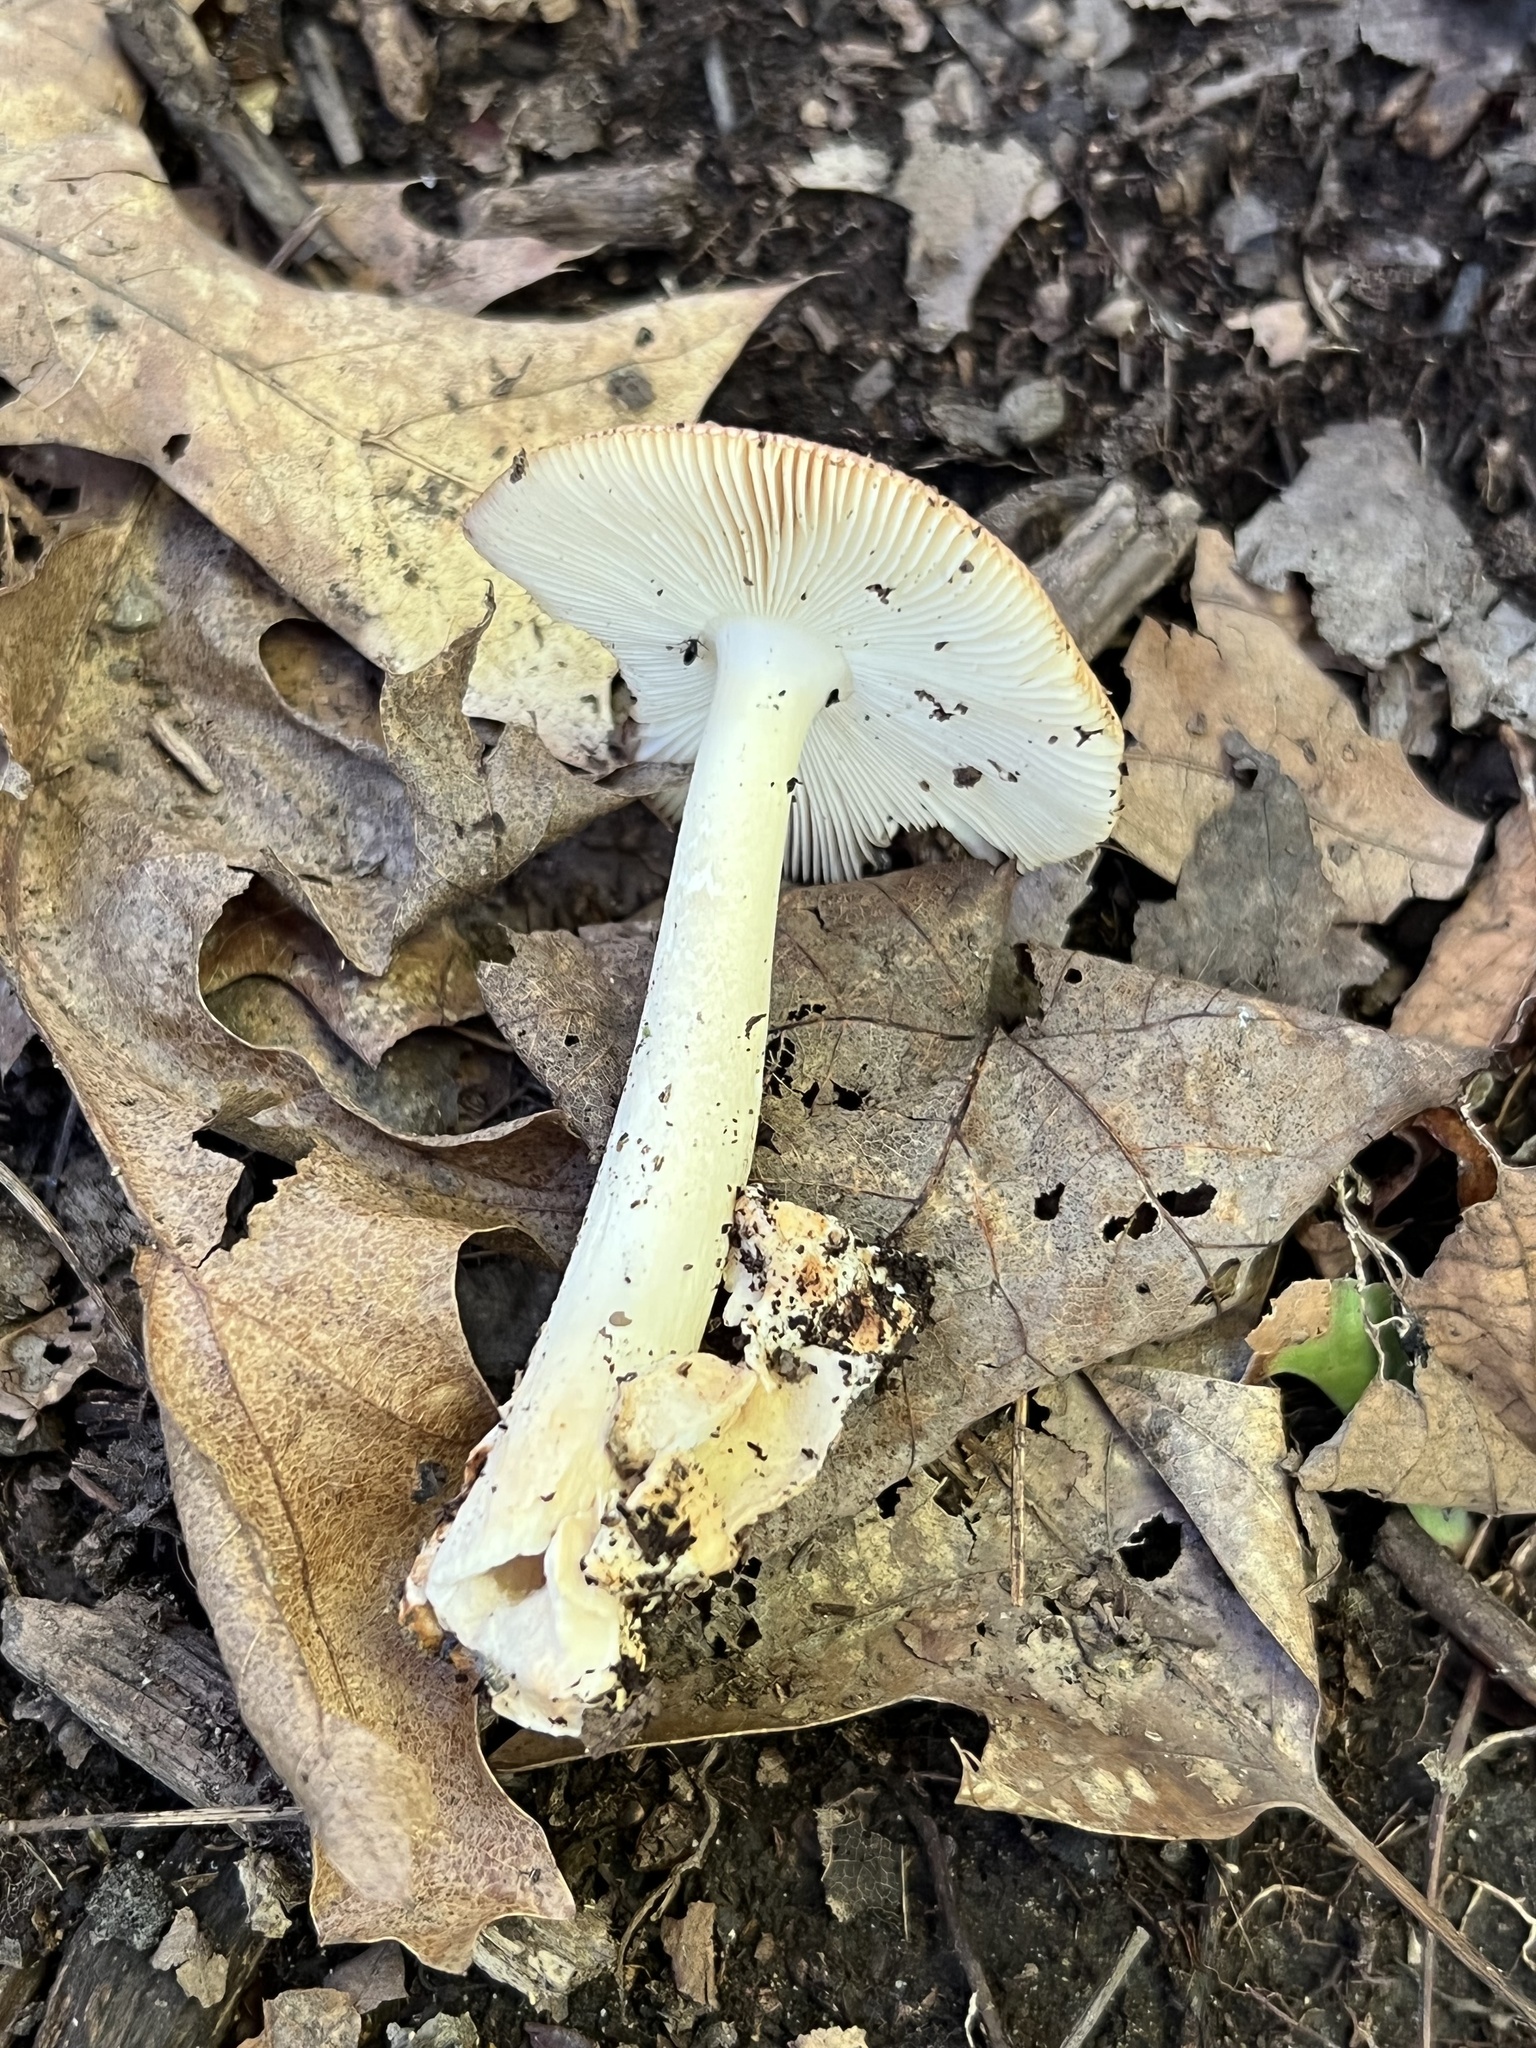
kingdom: Fungi
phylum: Basidiomycota
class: Agaricomycetes
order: Agaricales
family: Amanitaceae
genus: Amanita
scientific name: Amanita fulva
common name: Tawny grisette
